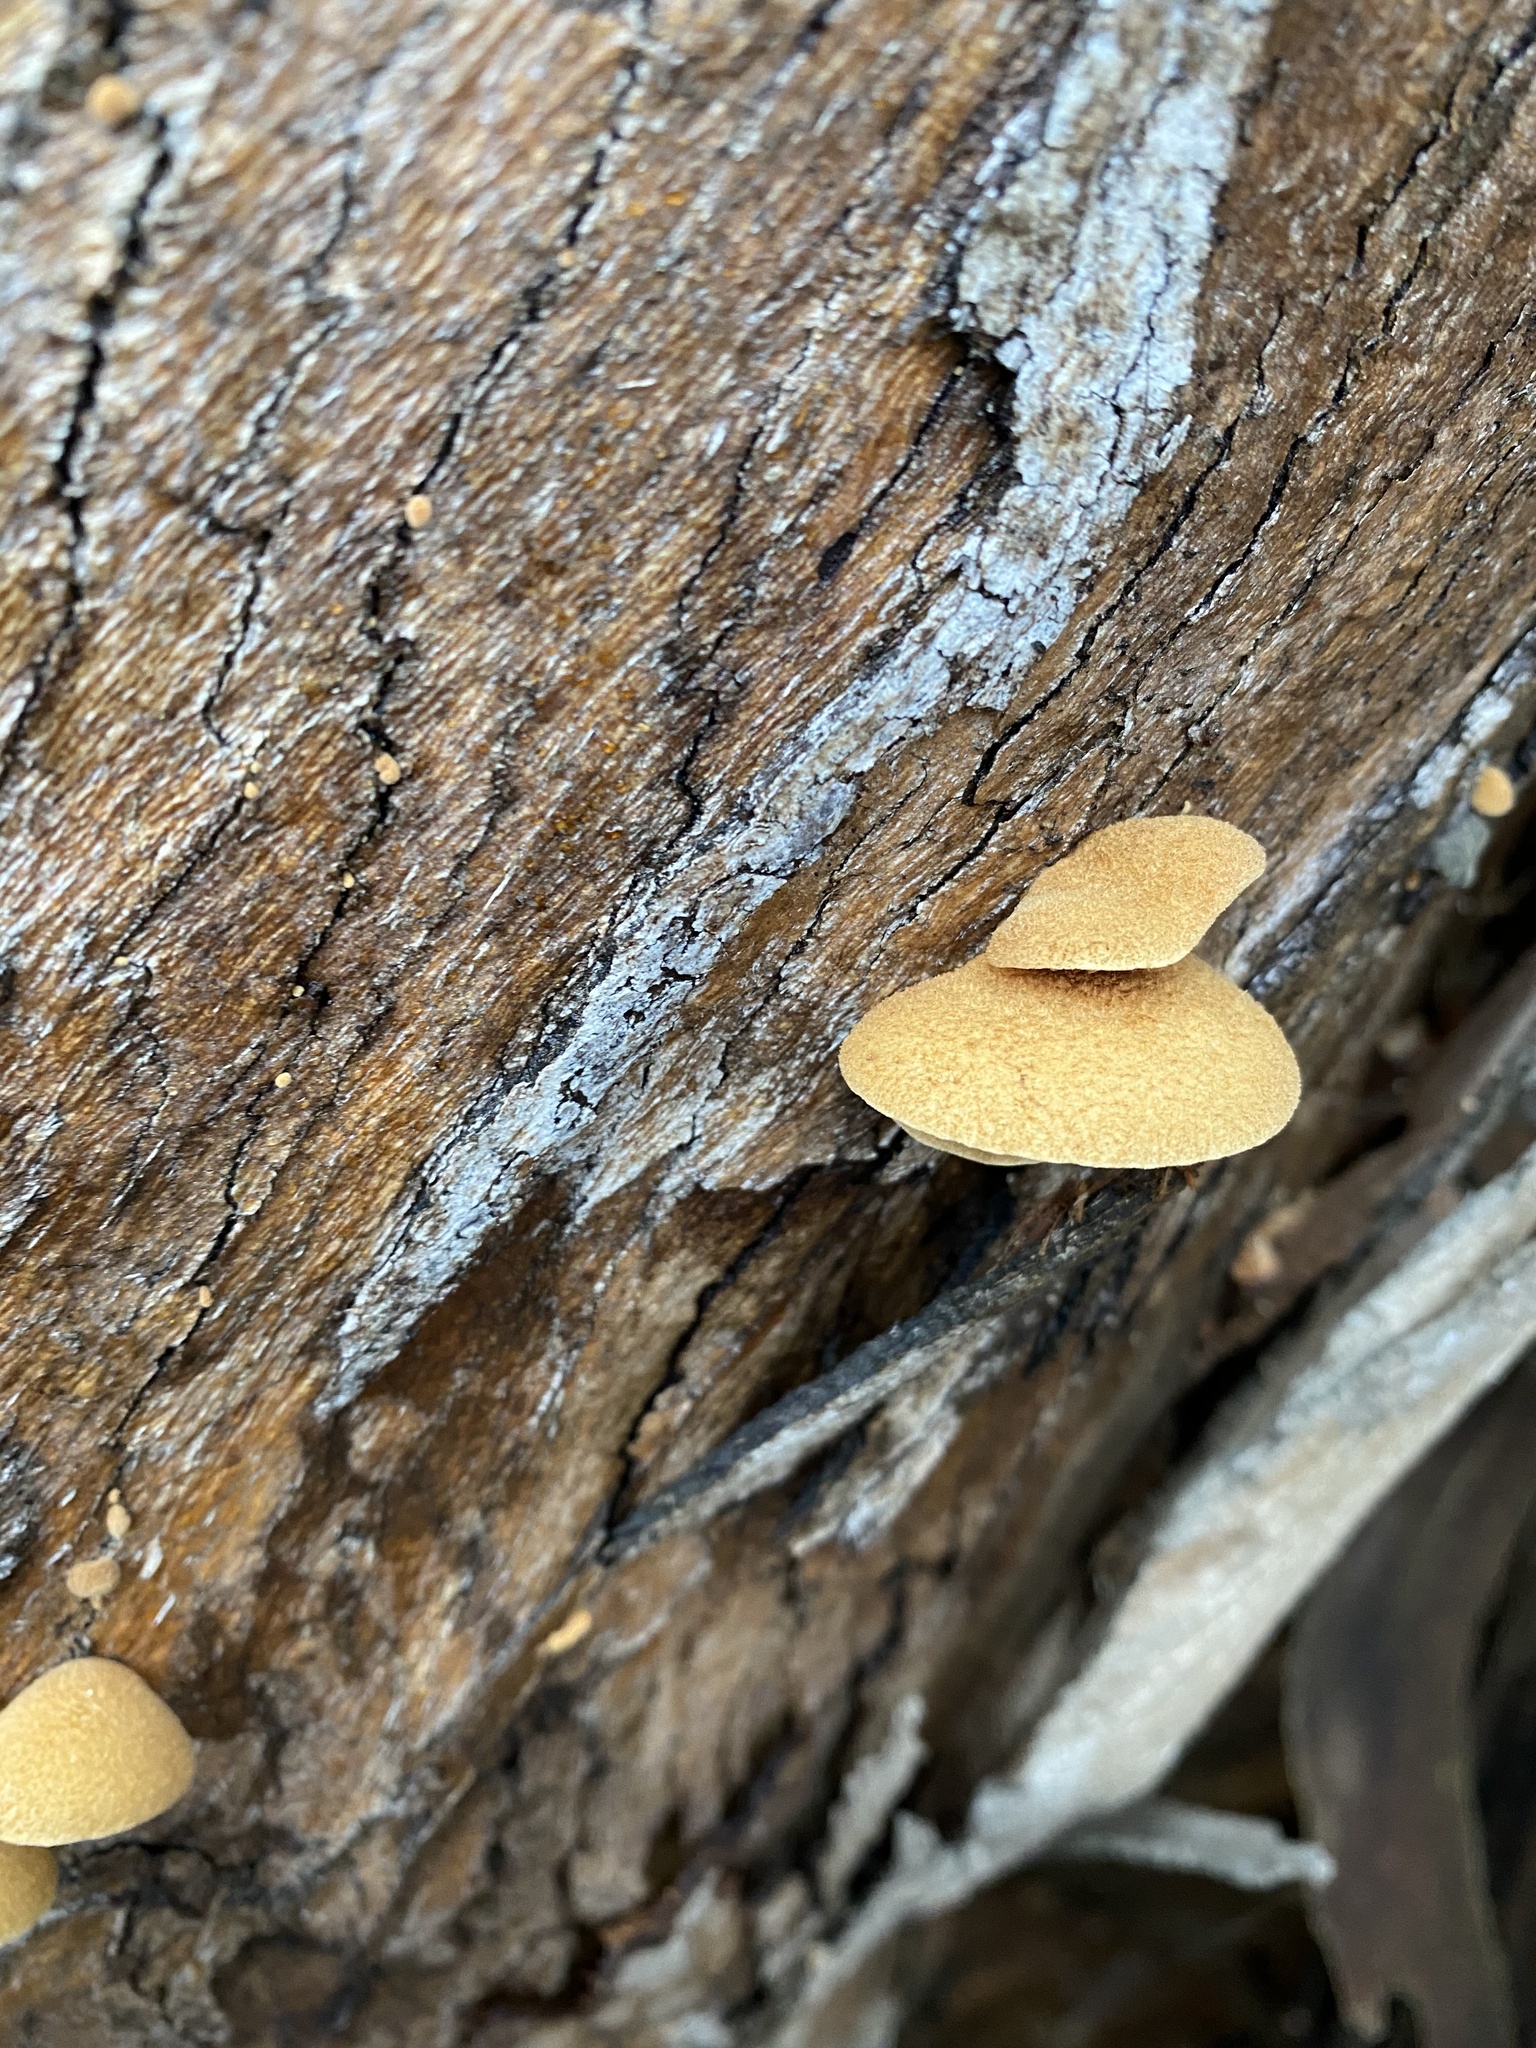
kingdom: Fungi
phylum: Basidiomycota
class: Agaricomycetes
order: Agaricales
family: Crepidotaceae
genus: Crepidotus
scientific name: Crepidotus crocophyllus
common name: Saffron oysterling
